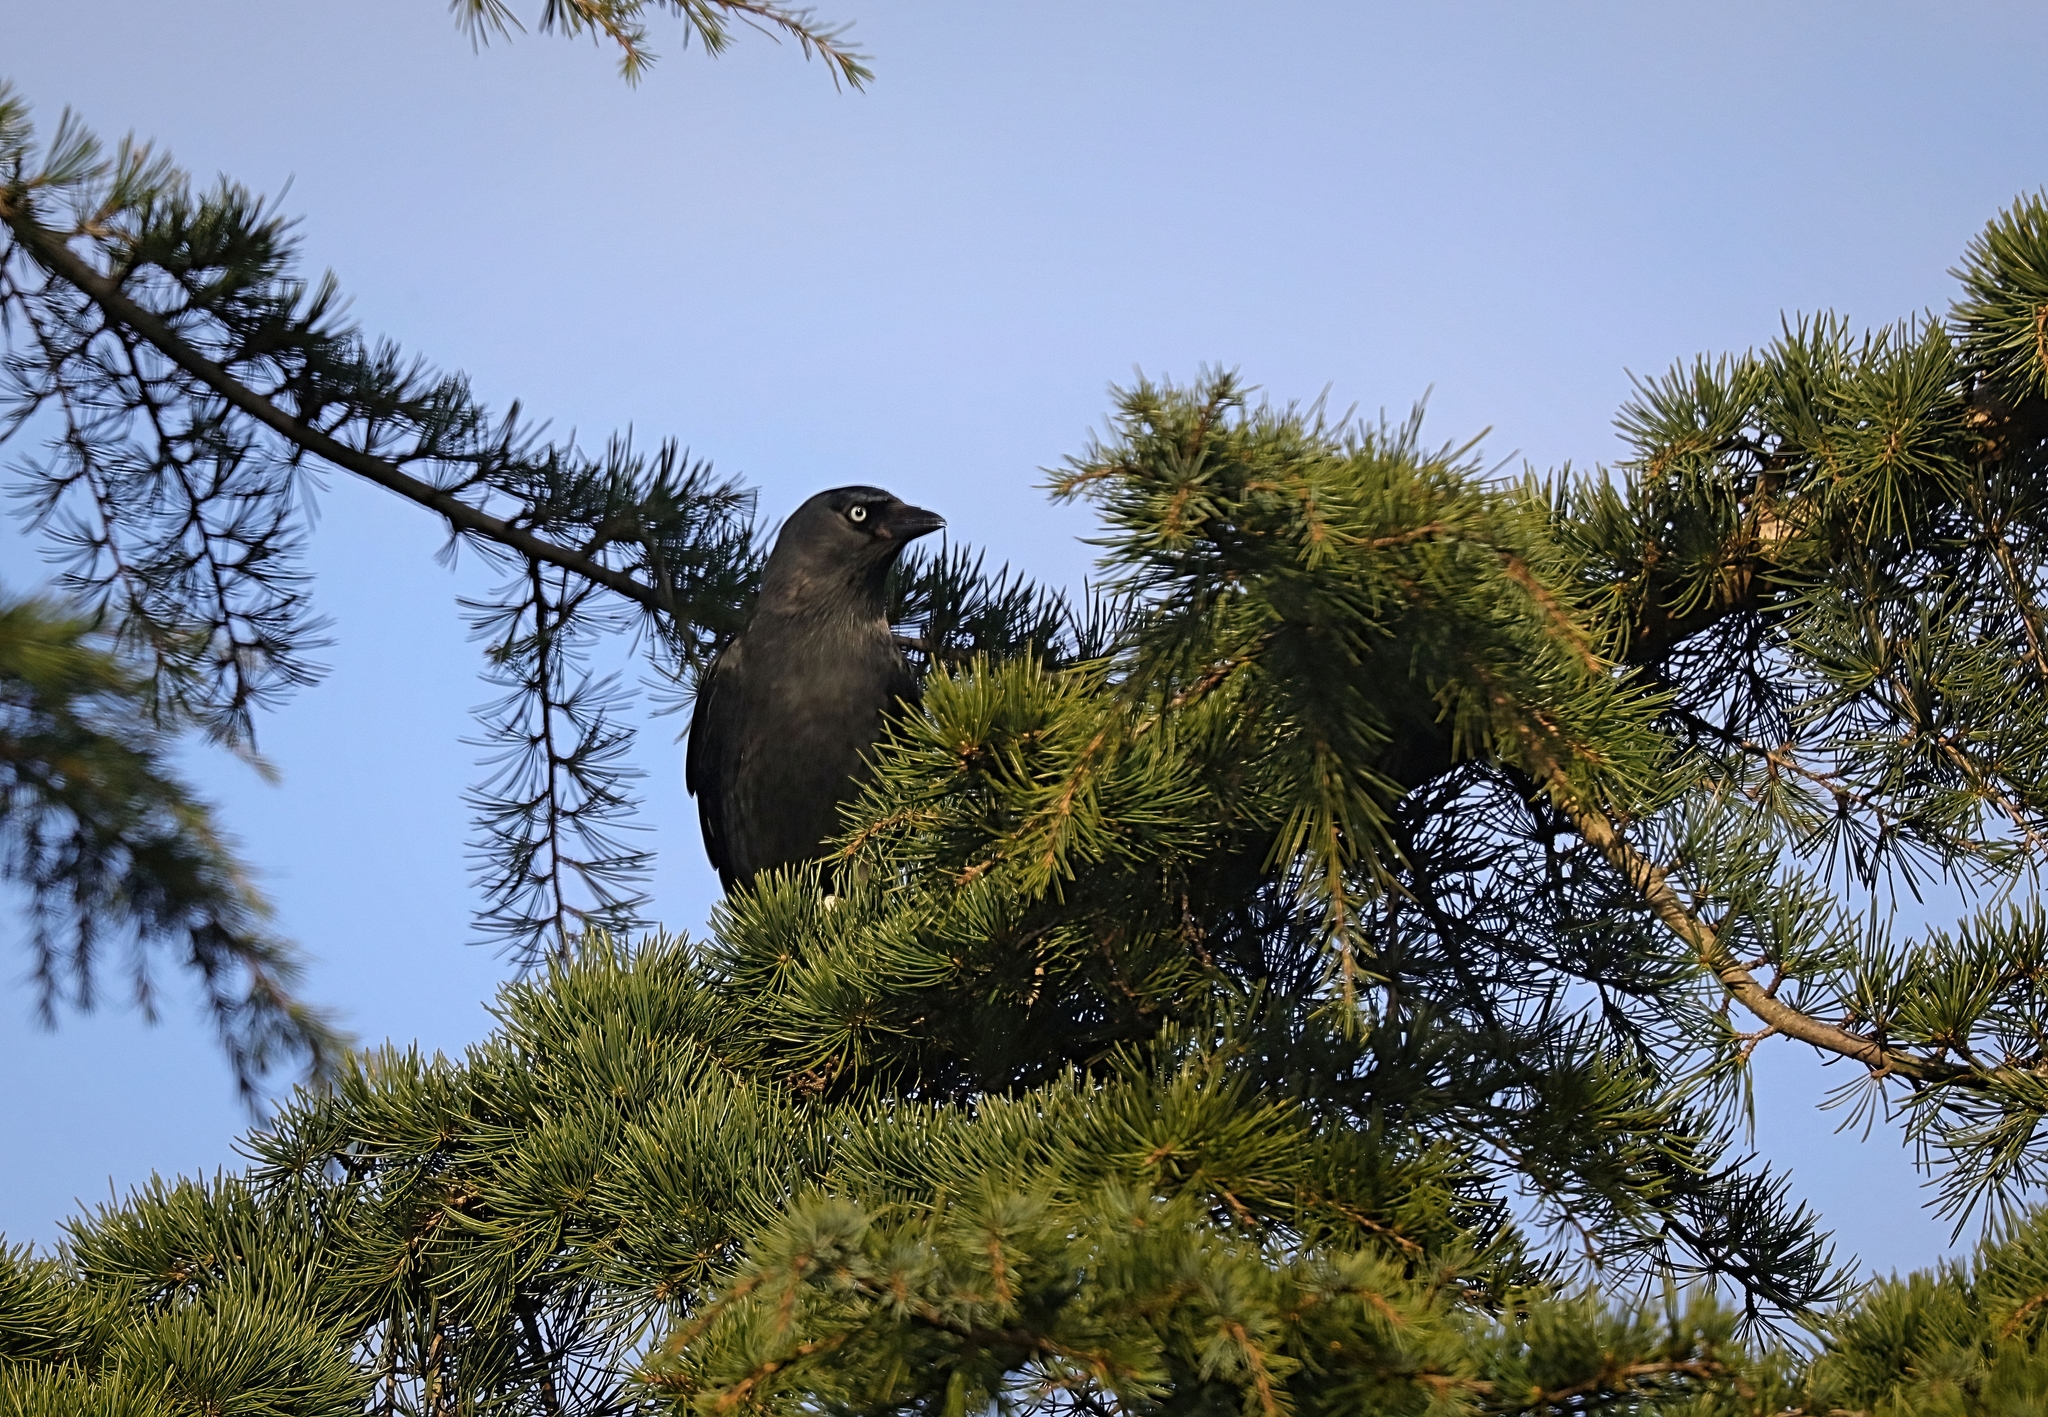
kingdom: Animalia
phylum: Chordata
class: Aves
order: Passeriformes
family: Corvidae
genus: Coloeus
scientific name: Coloeus monedula
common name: Western jackdaw
